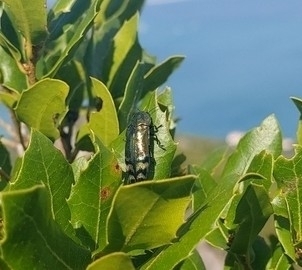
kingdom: Animalia
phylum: Arthropoda
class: Insecta
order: Coleoptera
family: Buprestidae
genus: Coraebus
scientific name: Coraebus fasciatus
